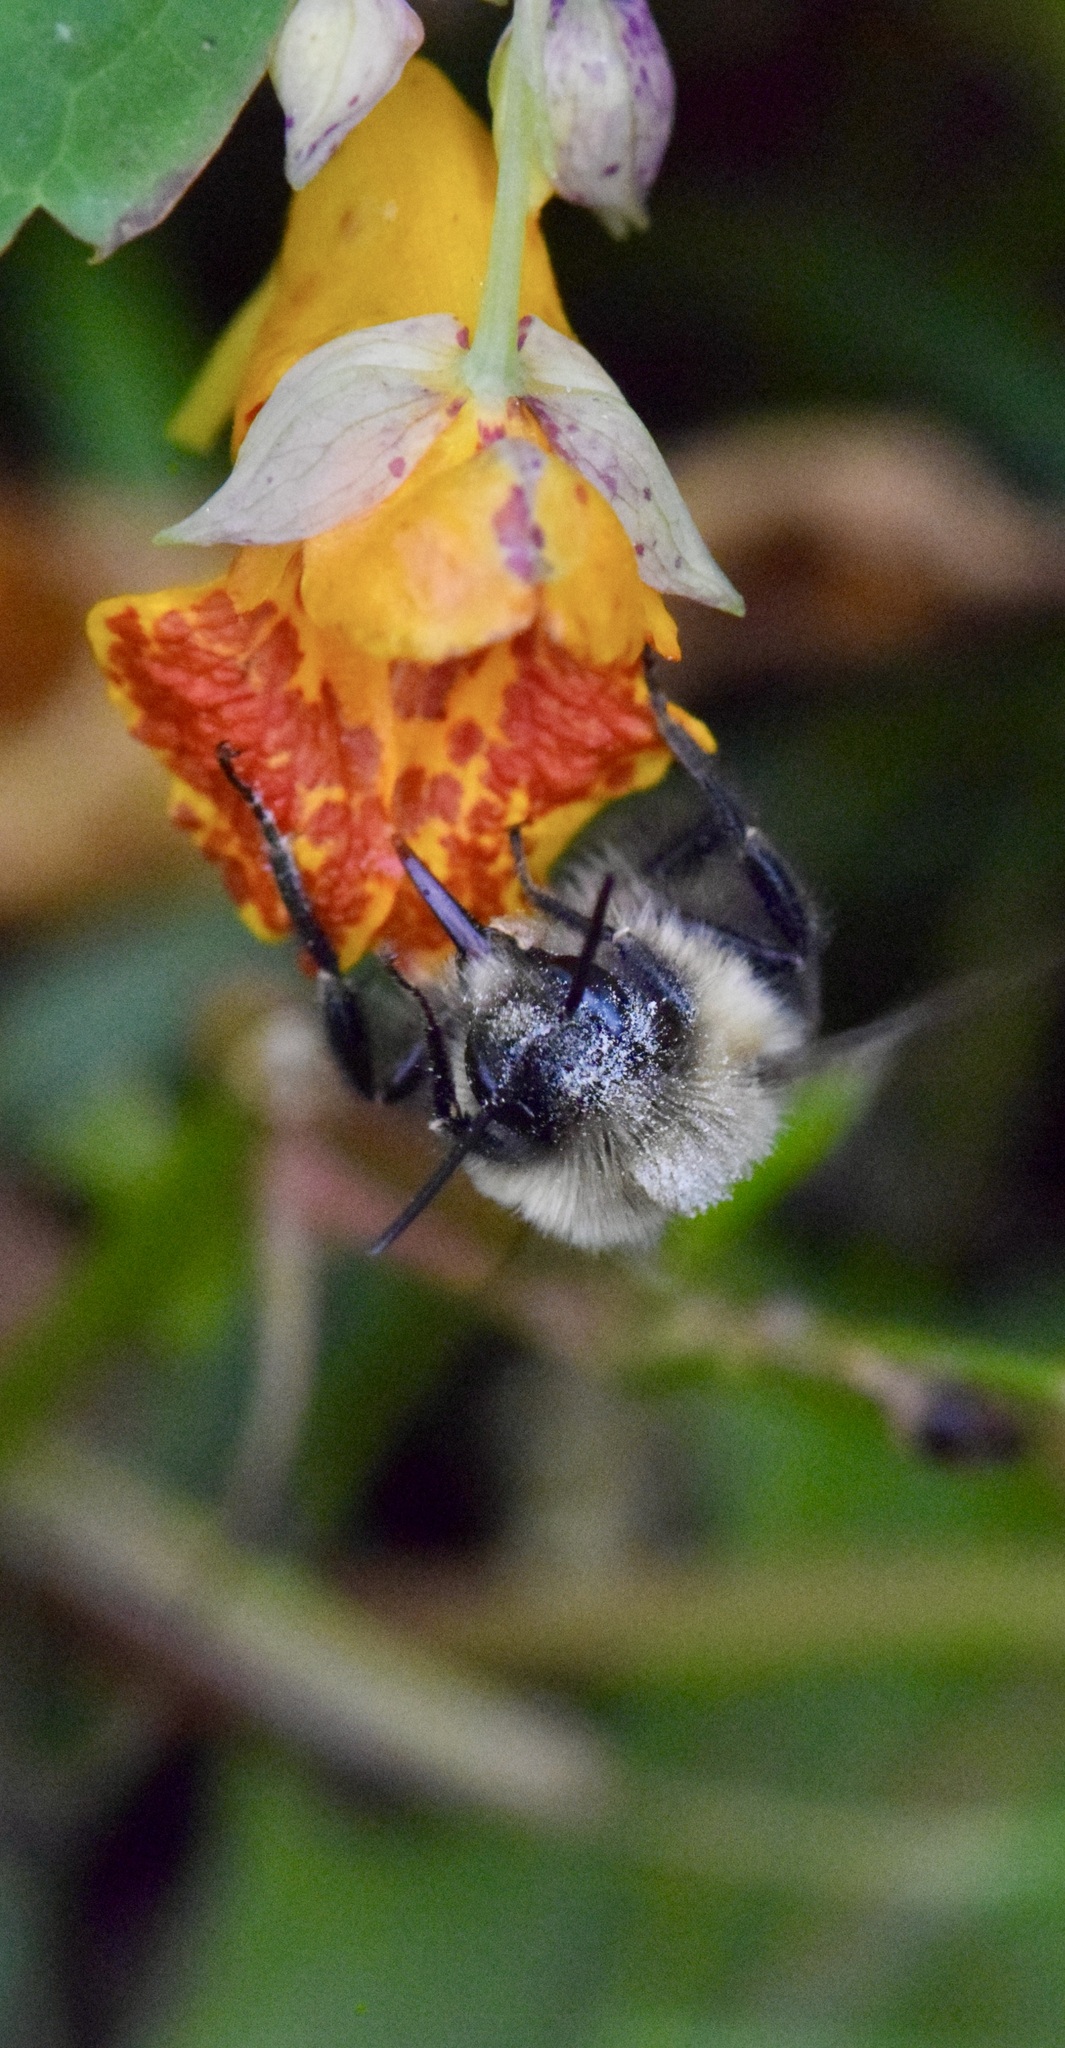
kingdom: Animalia
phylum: Arthropoda
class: Insecta
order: Hymenoptera
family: Apidae
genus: Bombus
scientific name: Bombus impatiens
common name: Common eastern bumble bee
